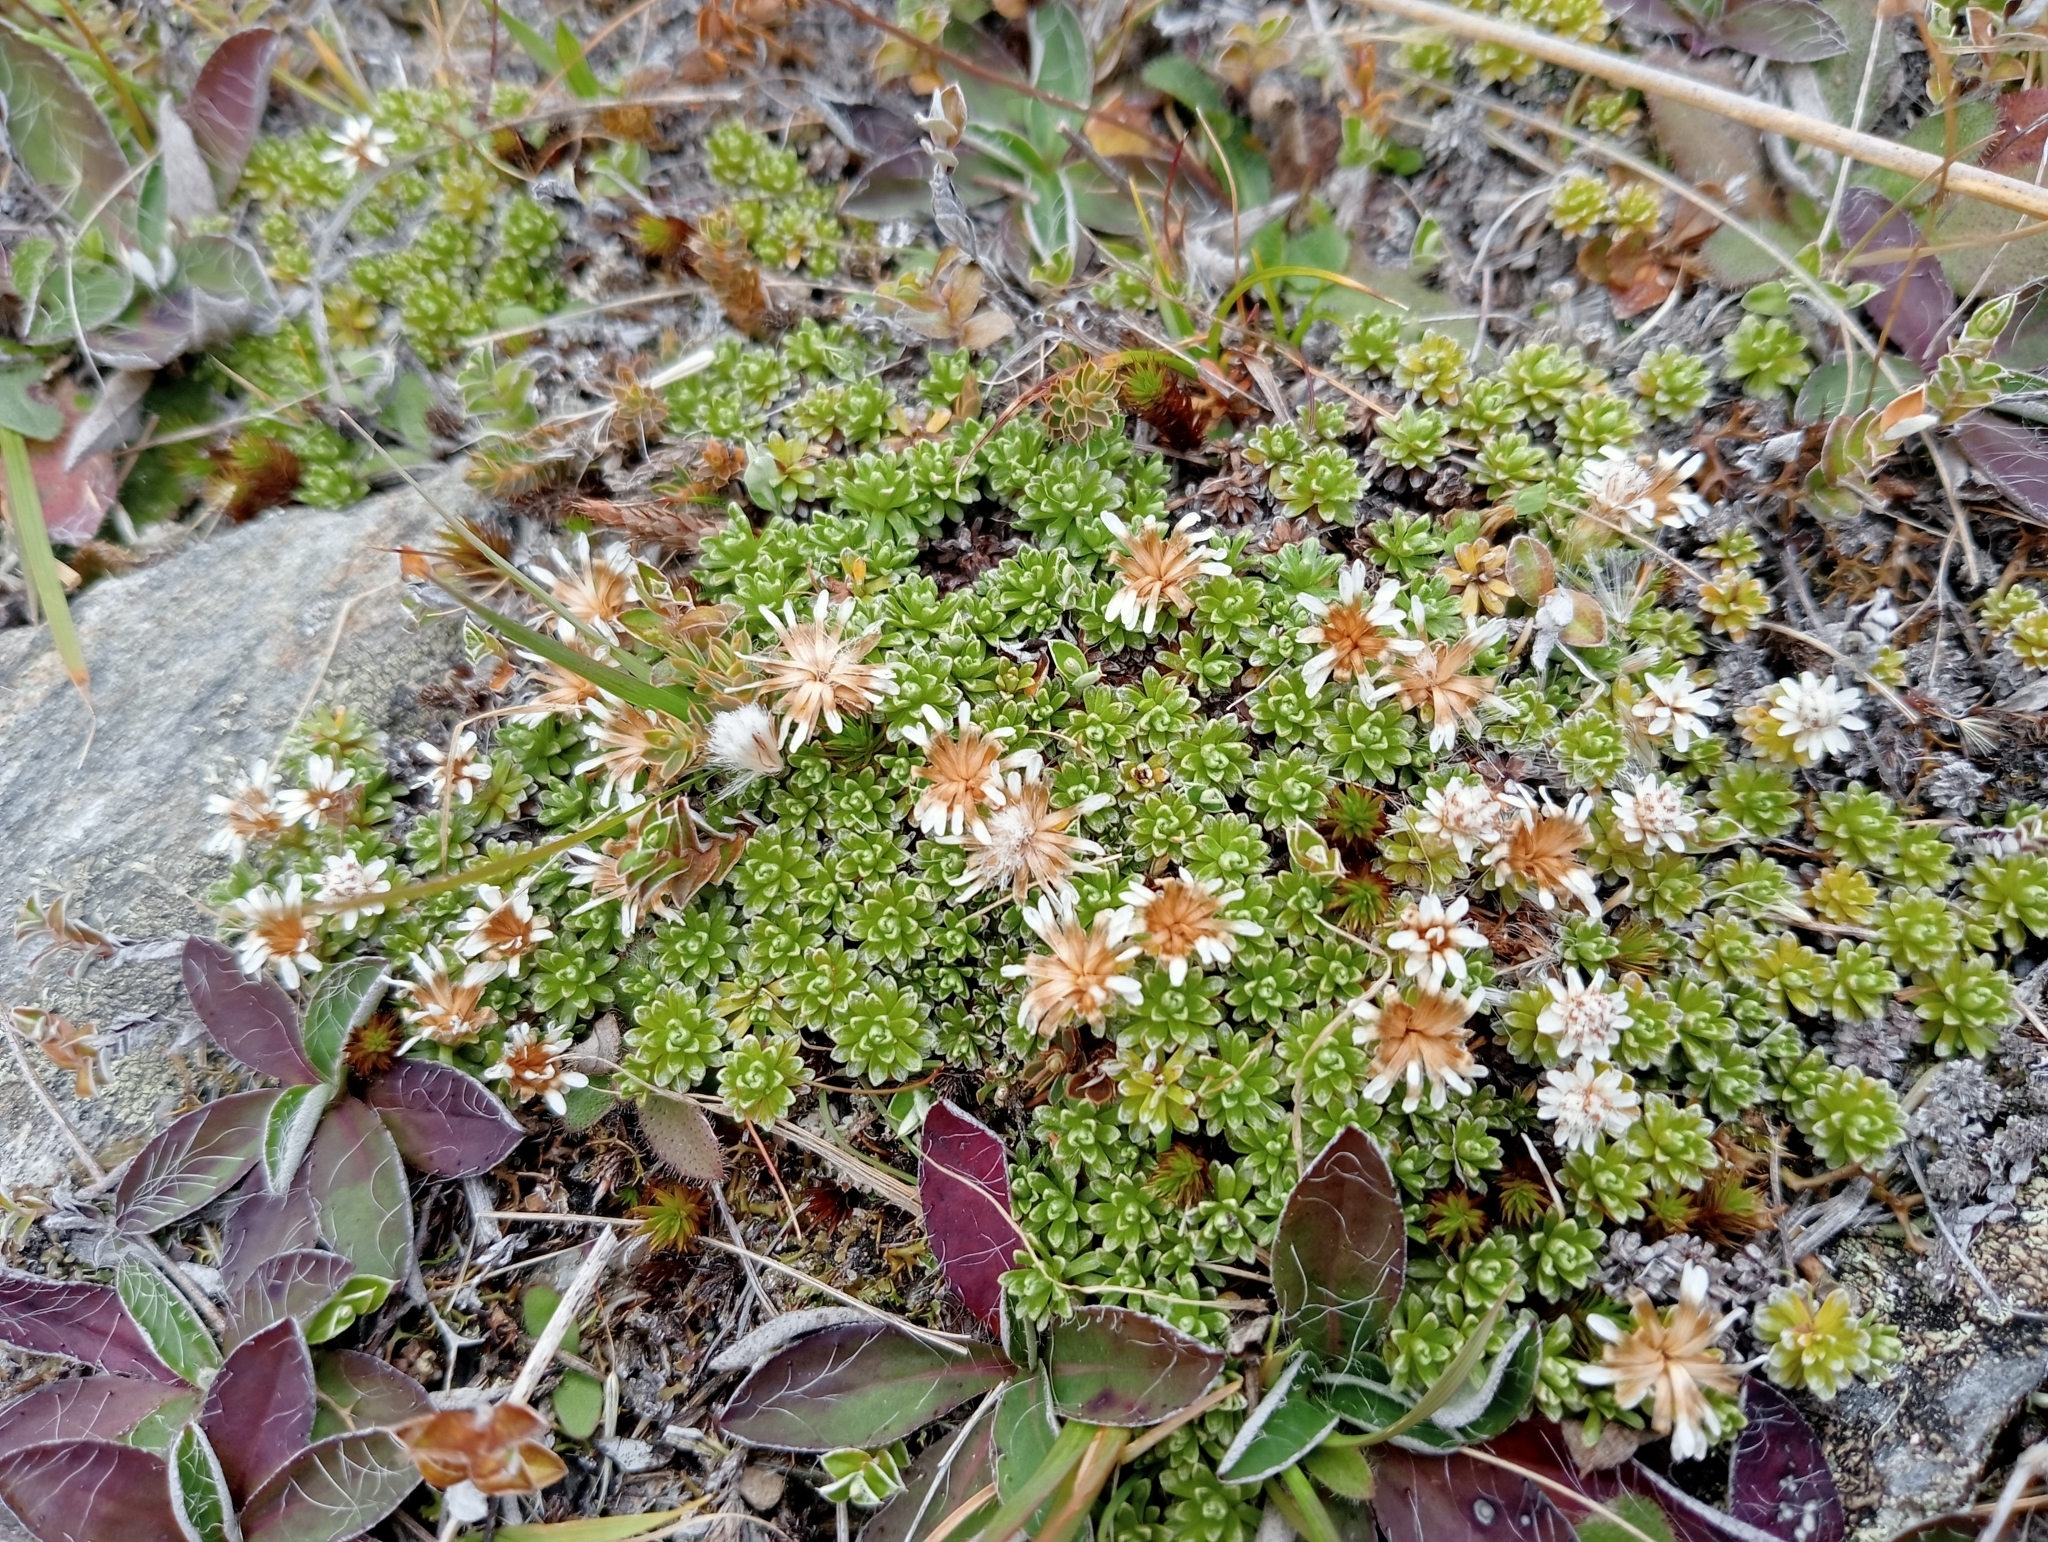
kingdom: Plantae
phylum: Tracheophyta
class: Magnoliopsida
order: Asterales
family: Asteraceae
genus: Raoulia
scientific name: Raoulia subsericea
